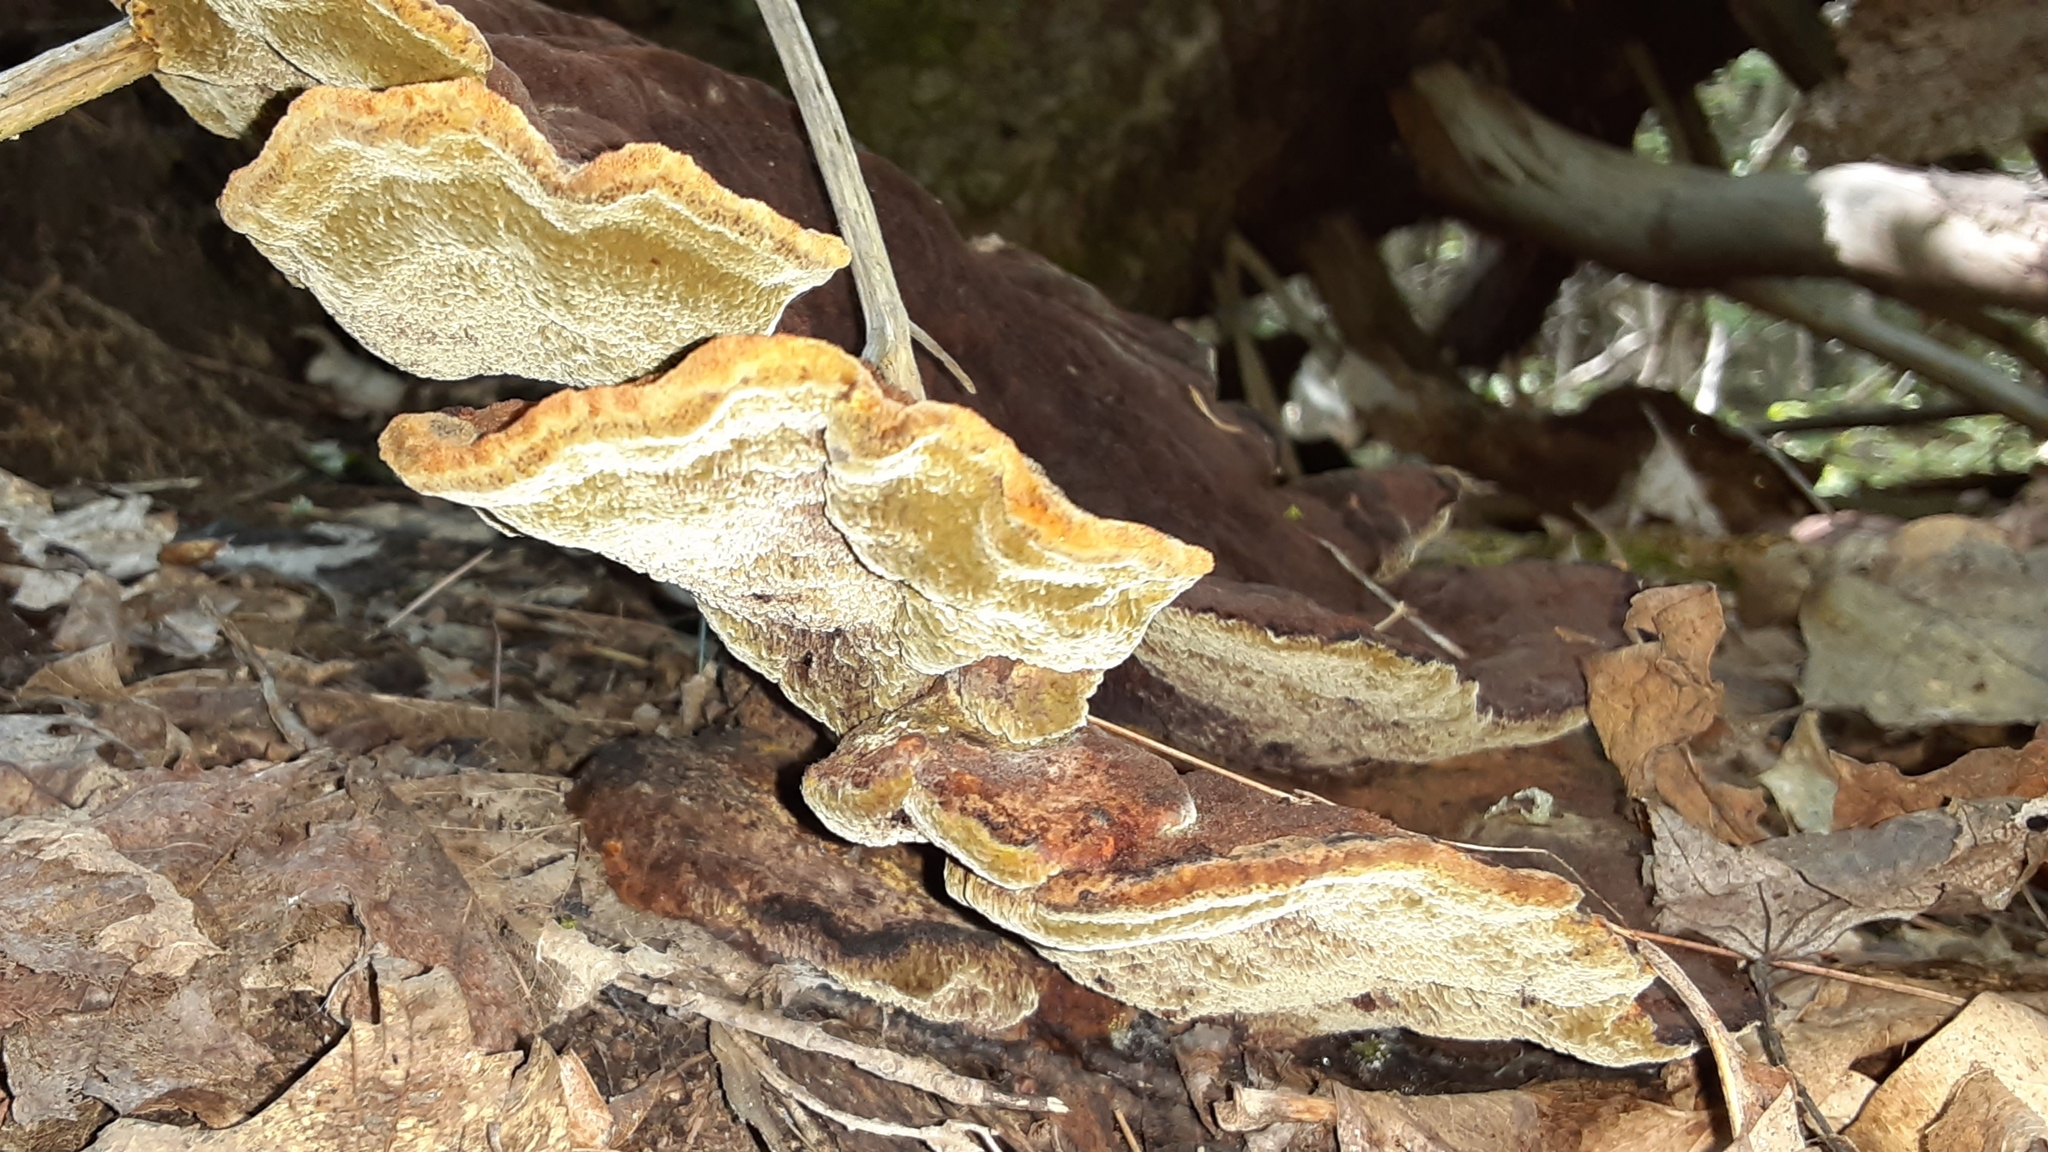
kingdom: Fungi
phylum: Basidiomycota
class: Agaricomycetes
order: Polyporales
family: Laetiporaceae
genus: Phaeolus
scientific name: Phaeolus schweinitzii
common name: Dyer's mazegill
